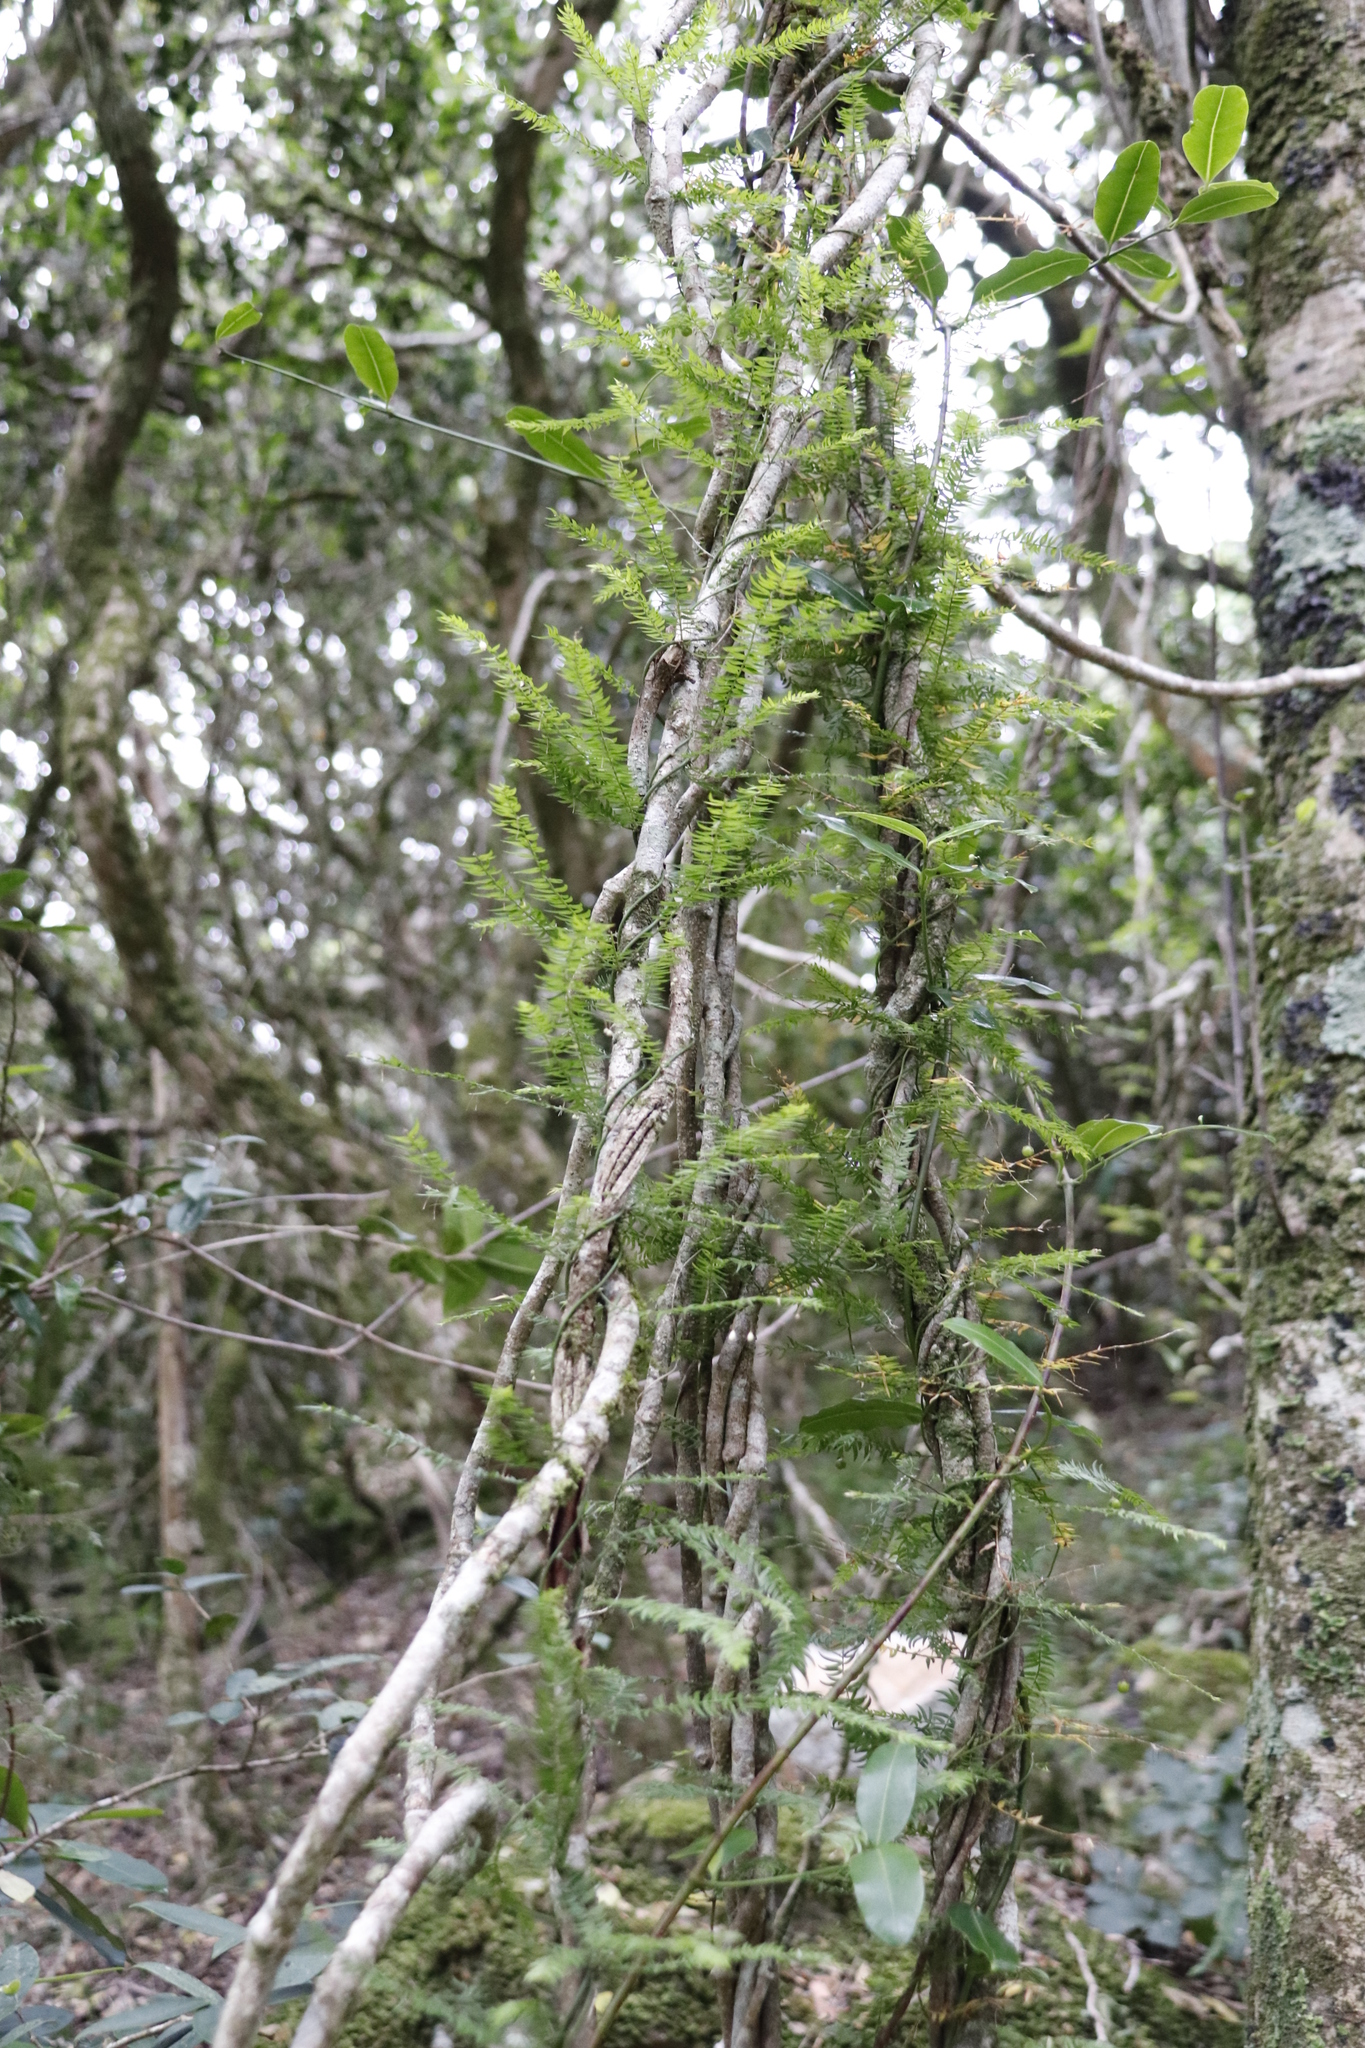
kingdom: Plantae
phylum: Tracheophyta
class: Liliopsida
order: Asparagales
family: Asparagaceae
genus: Asparagus
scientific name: Asparagus scandens
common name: Asparagus-fern
